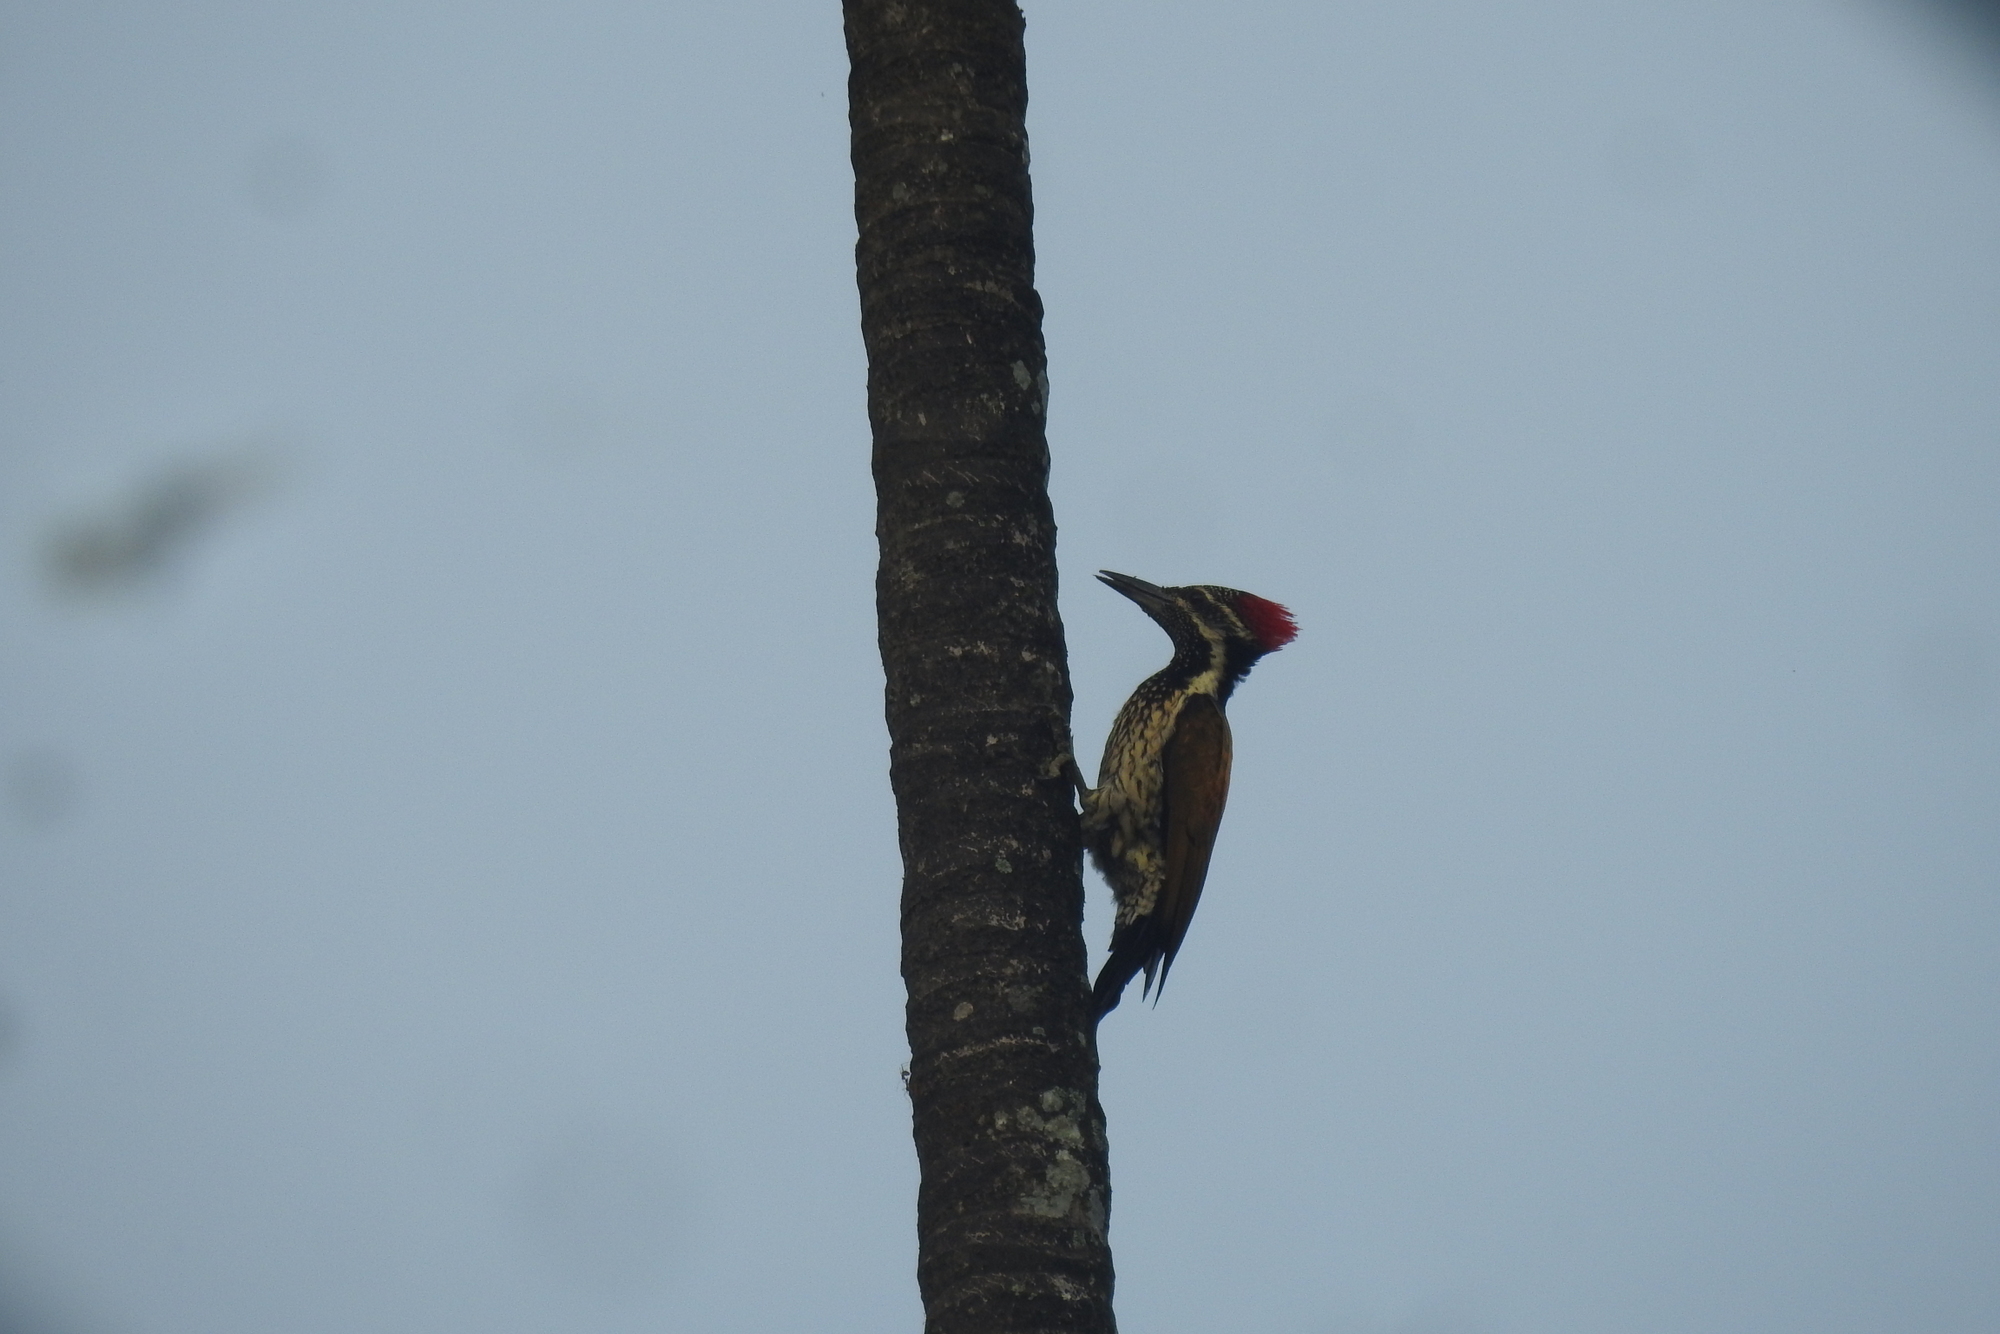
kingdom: Animalia
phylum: Chordata
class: Aves
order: Piciformes
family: Picidae
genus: Dinopium
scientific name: Dinopium benghalense
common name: Black-rumped flameback
